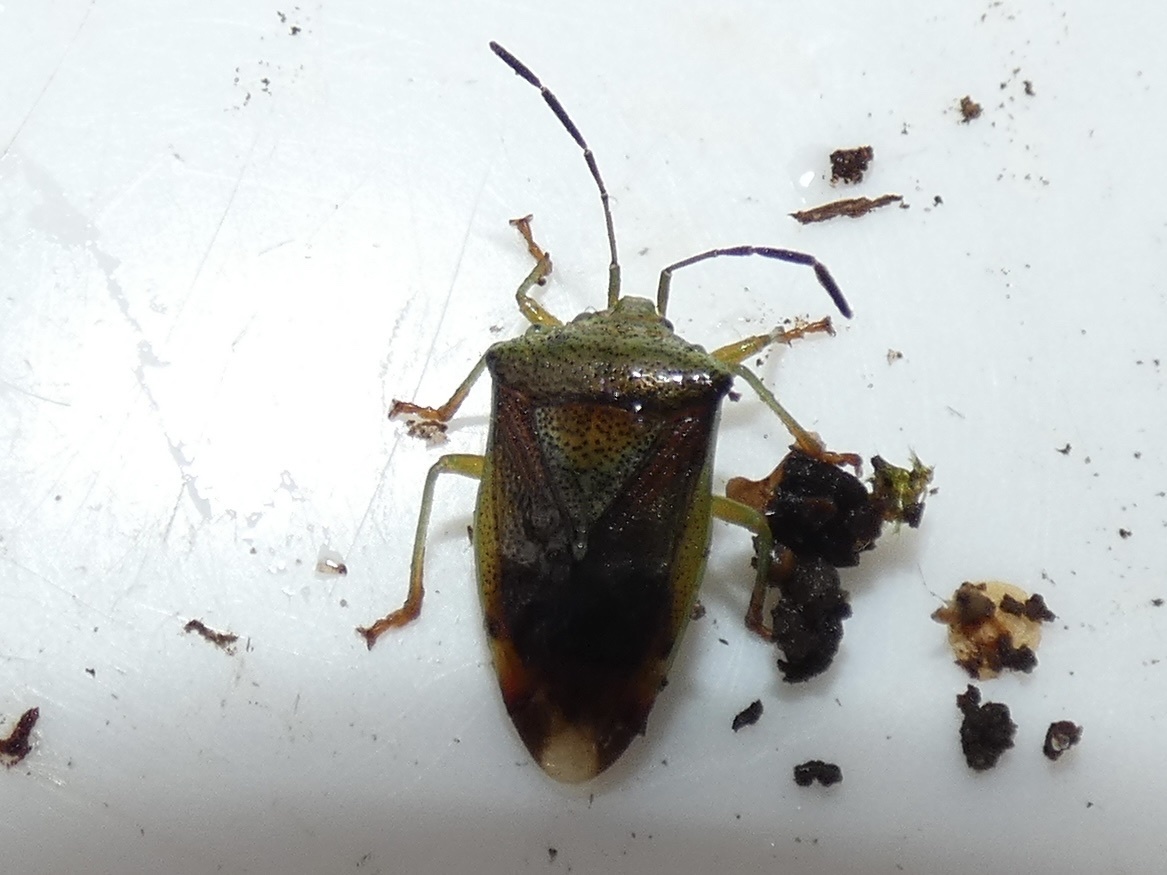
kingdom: Animalia
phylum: Arthropoda
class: Insecta
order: Hemiptera
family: Acanthosomatidae
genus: Elasmostethus
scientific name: Elasmostethus interstinctus
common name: Birch shieldbug
